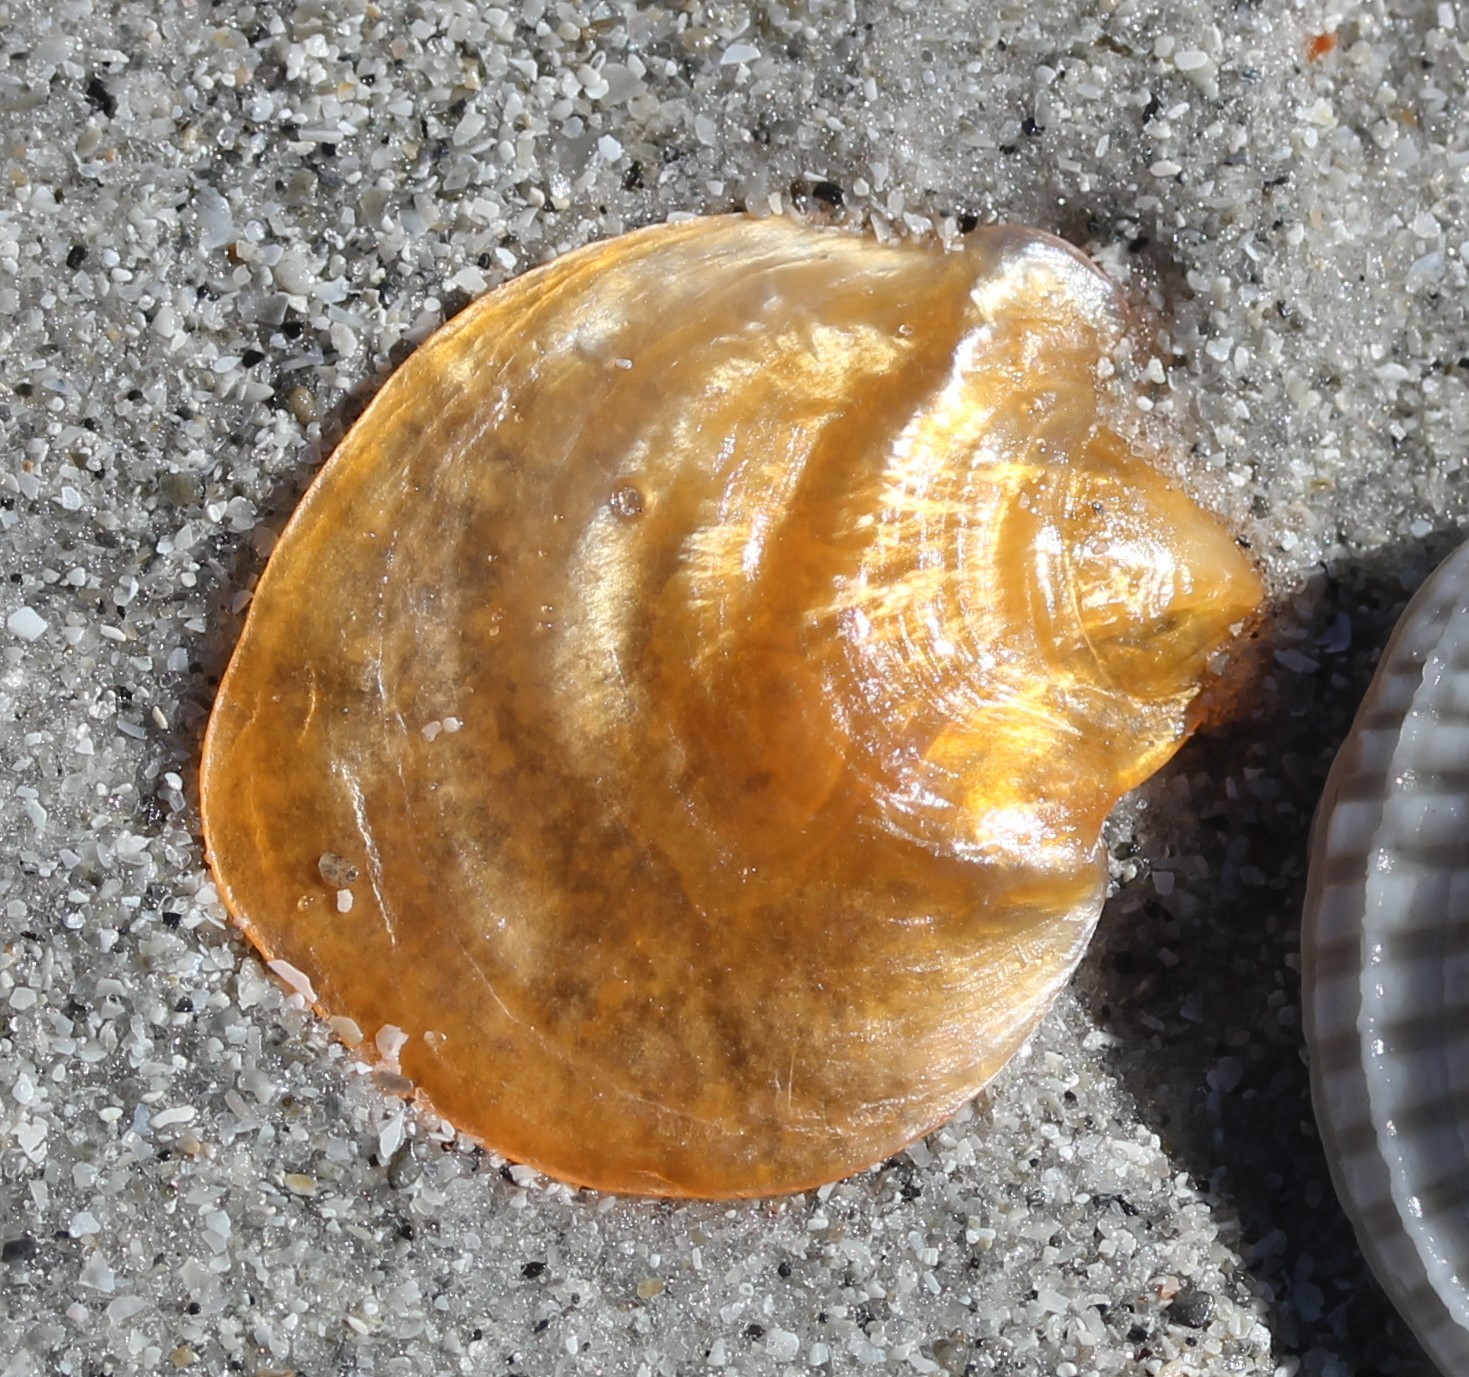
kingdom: Animalia
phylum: Mollusca
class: Bivalvia
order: Pectinida
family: Anomiidae
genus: Anomia
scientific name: Anomia simplex
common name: Common jingle shell
